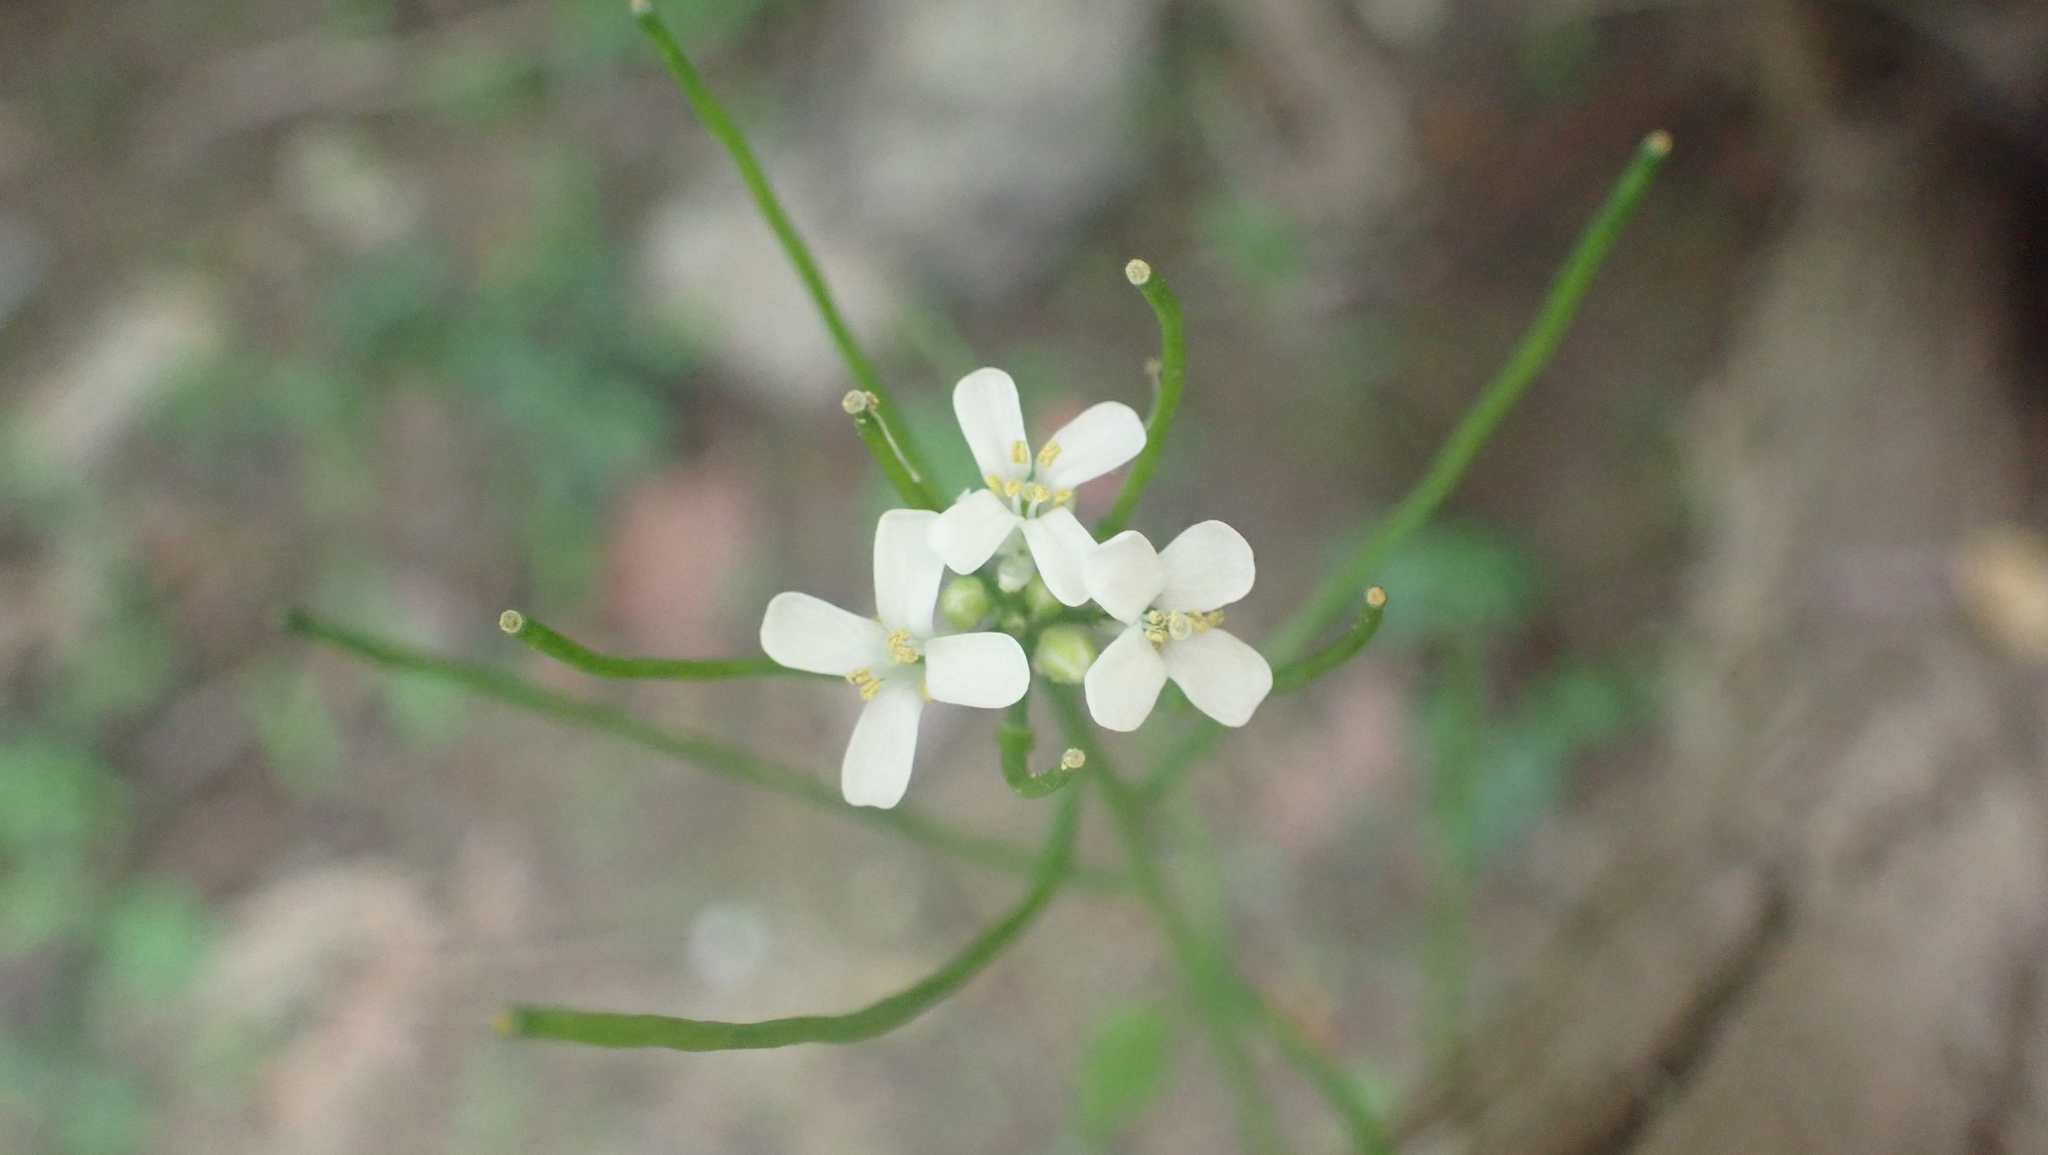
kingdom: Plantae
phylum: Tracheophyta
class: Magnoliopsida
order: Brassicales
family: Brassicaceae
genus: Alliaria
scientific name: Alliaria petiolata
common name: Garlic mustard
